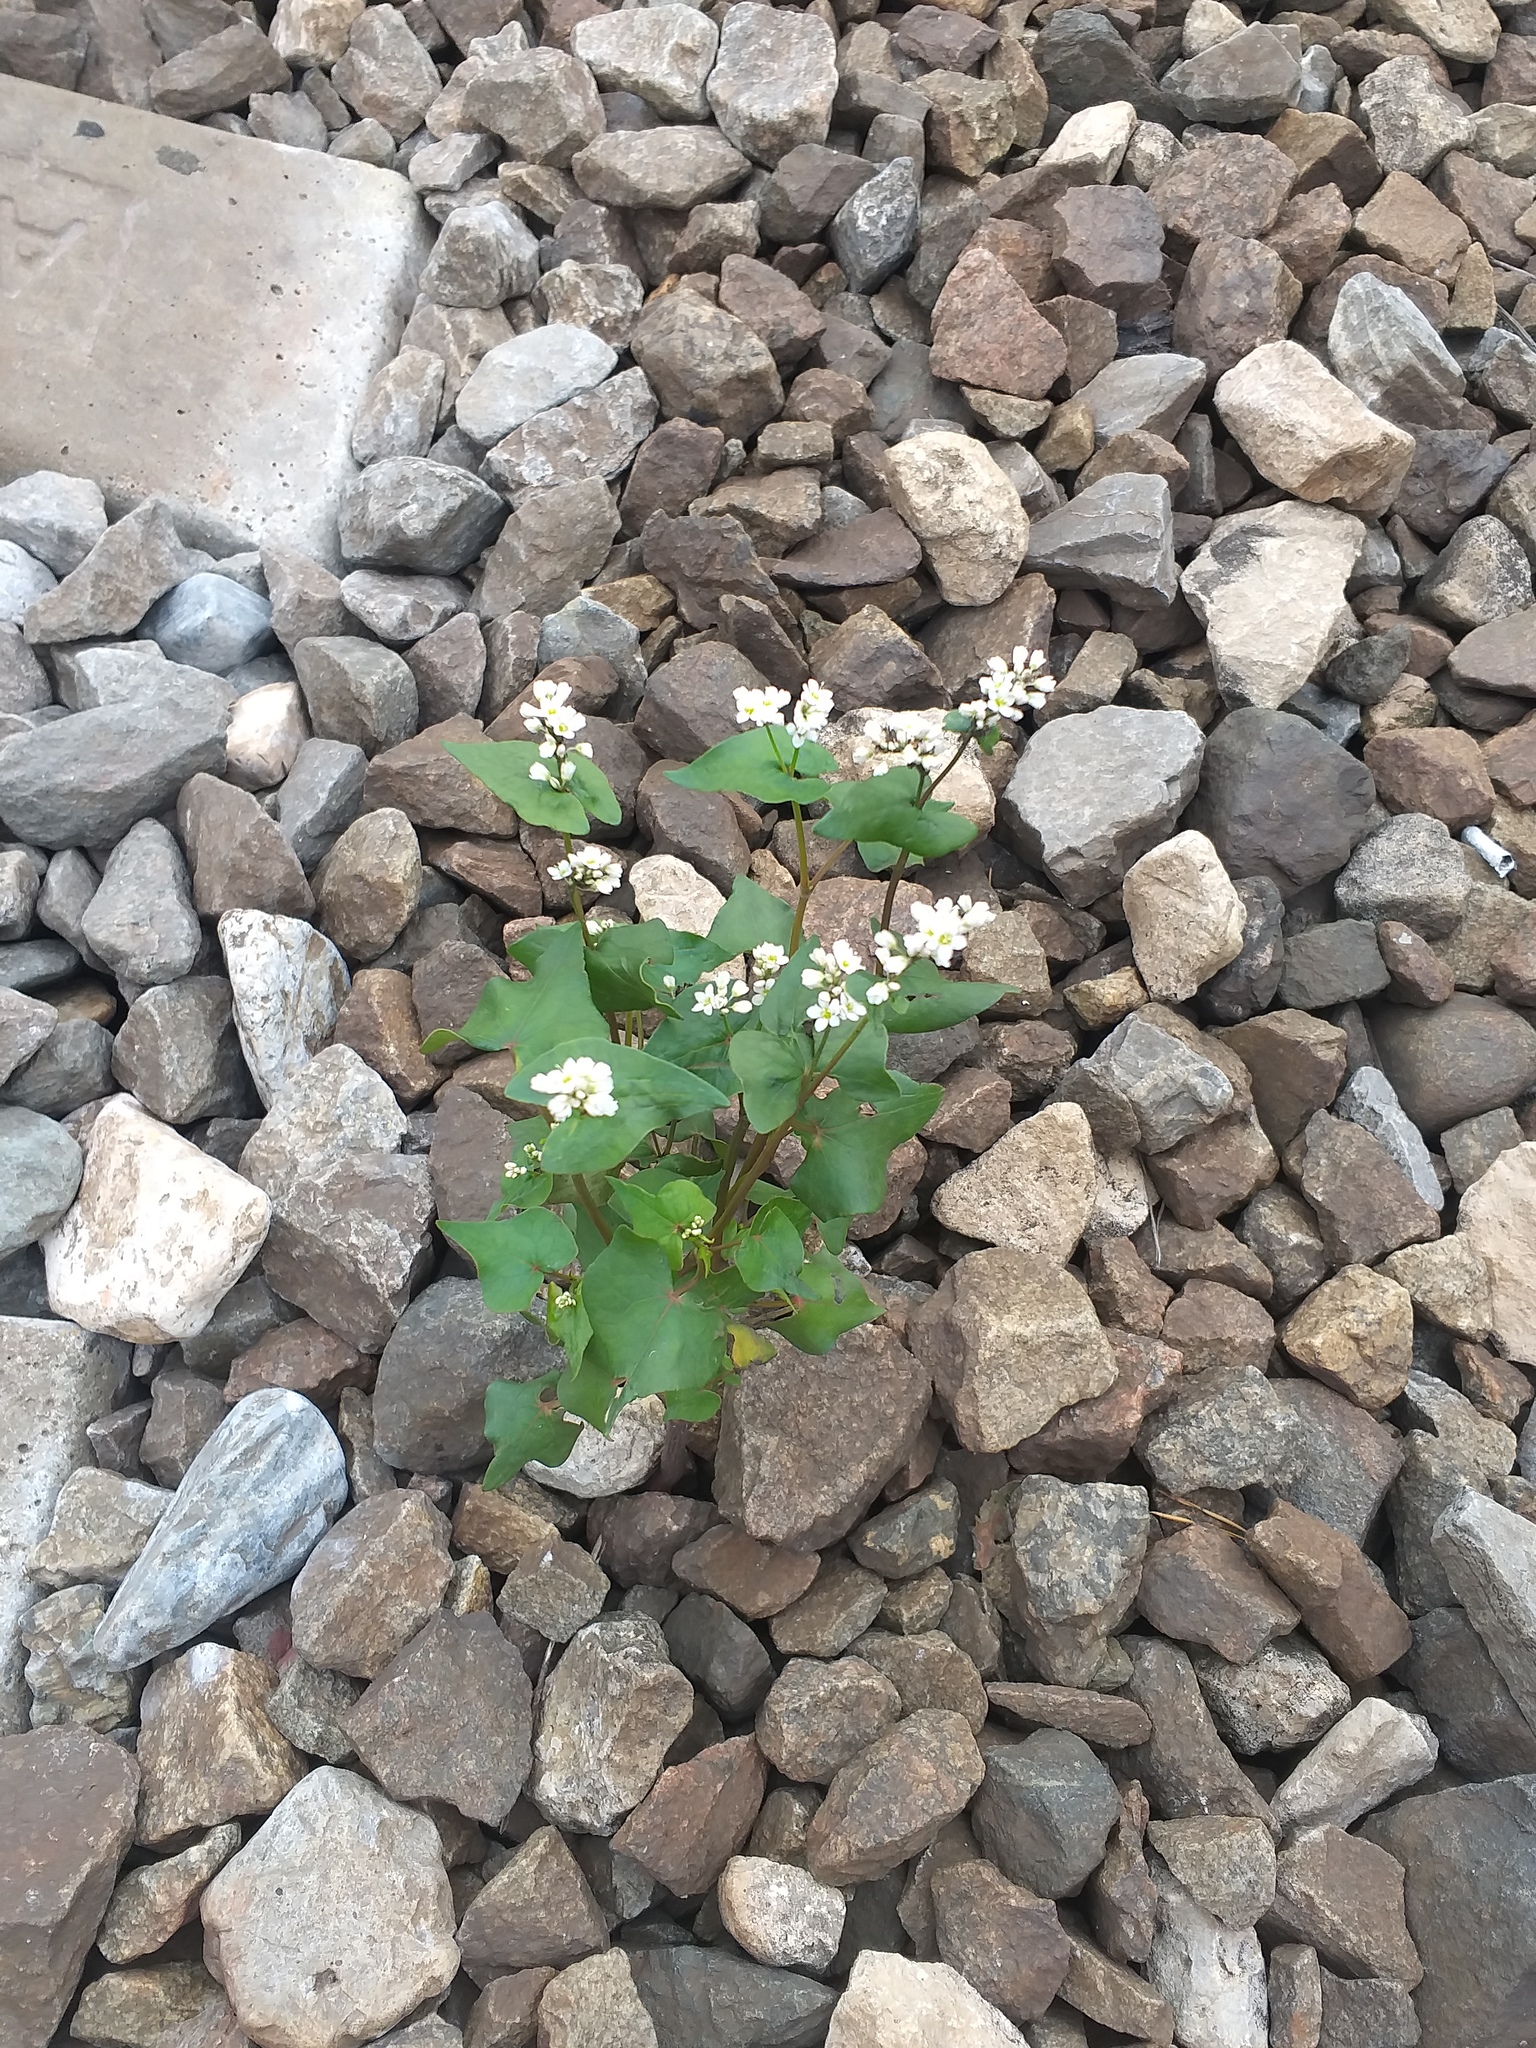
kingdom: Plantae
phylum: Tracheophyta
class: Magnoliopsida
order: Caryophyllales
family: Polygonaceae
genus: Fagopyrum
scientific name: Fagopyrum esculentum
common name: Buckwheat
